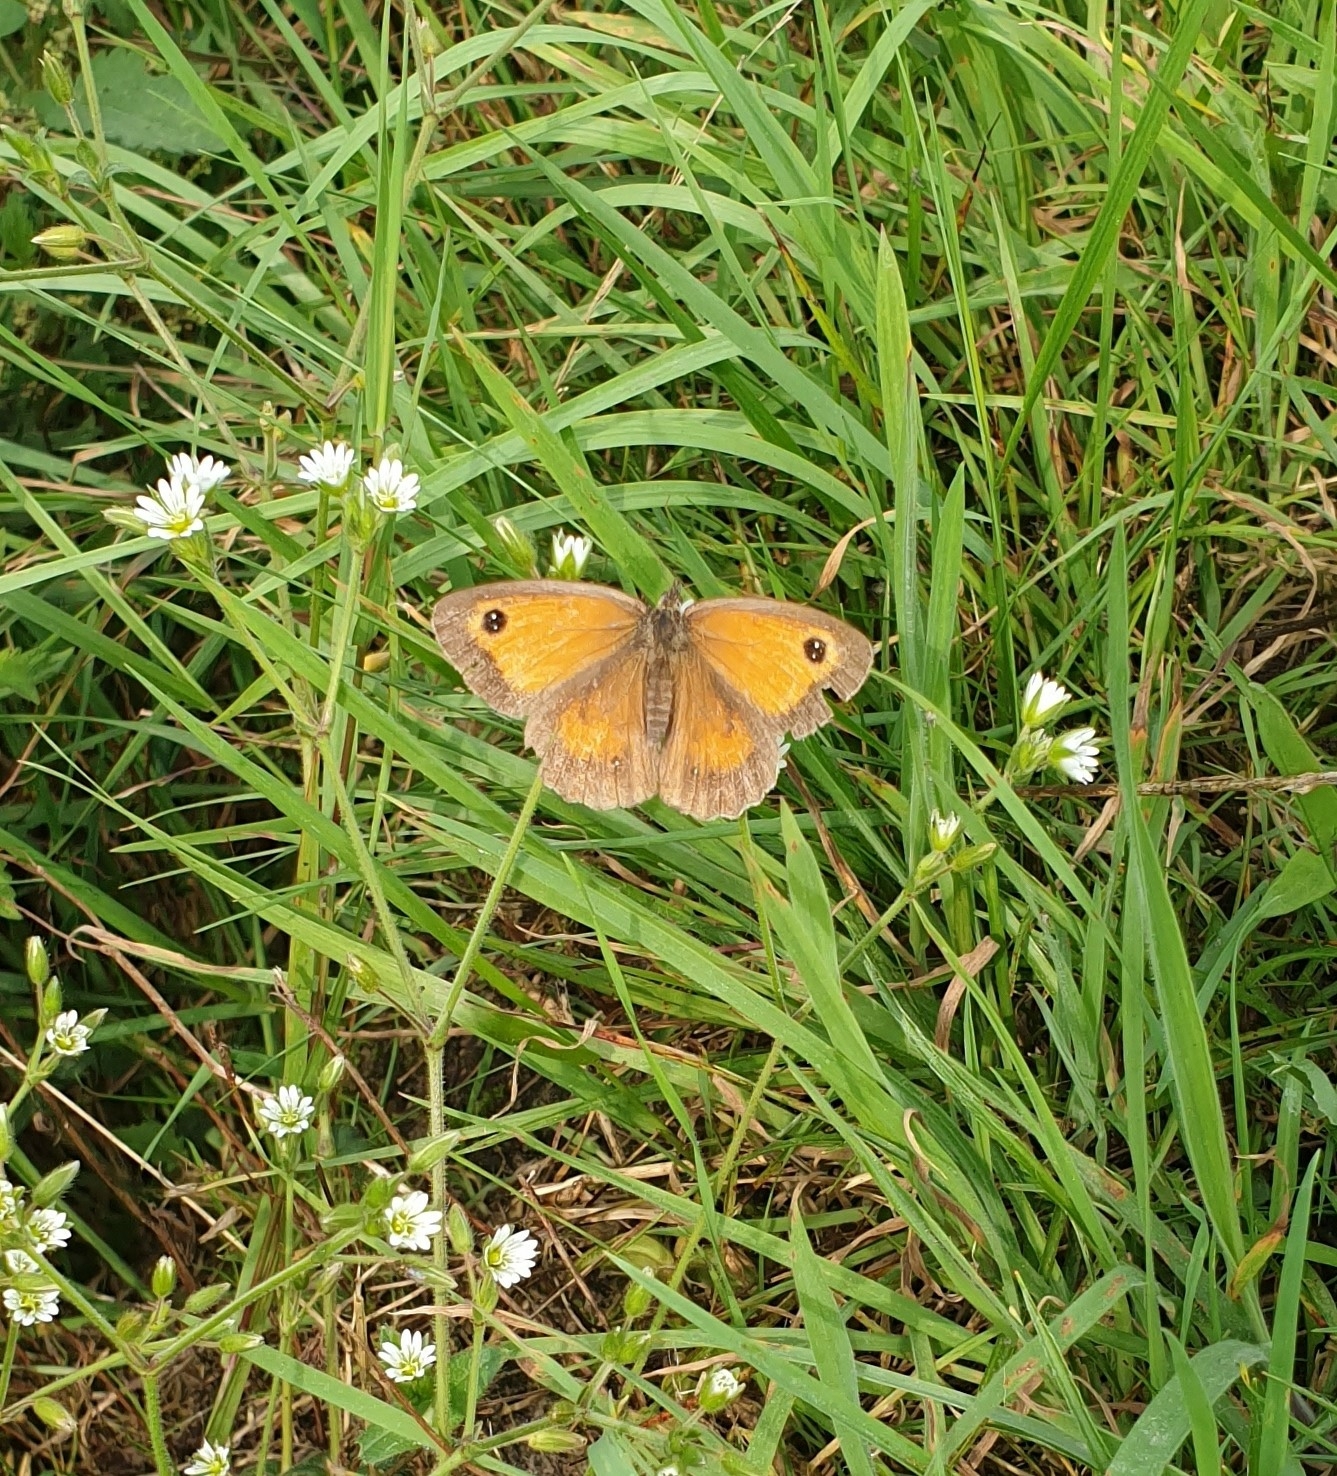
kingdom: Animalia
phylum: Arthropoda
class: Insecta
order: Lepidoptera
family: Nymphalidae
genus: Pyronia
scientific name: Pyronia tithonus
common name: Gatekeeper
